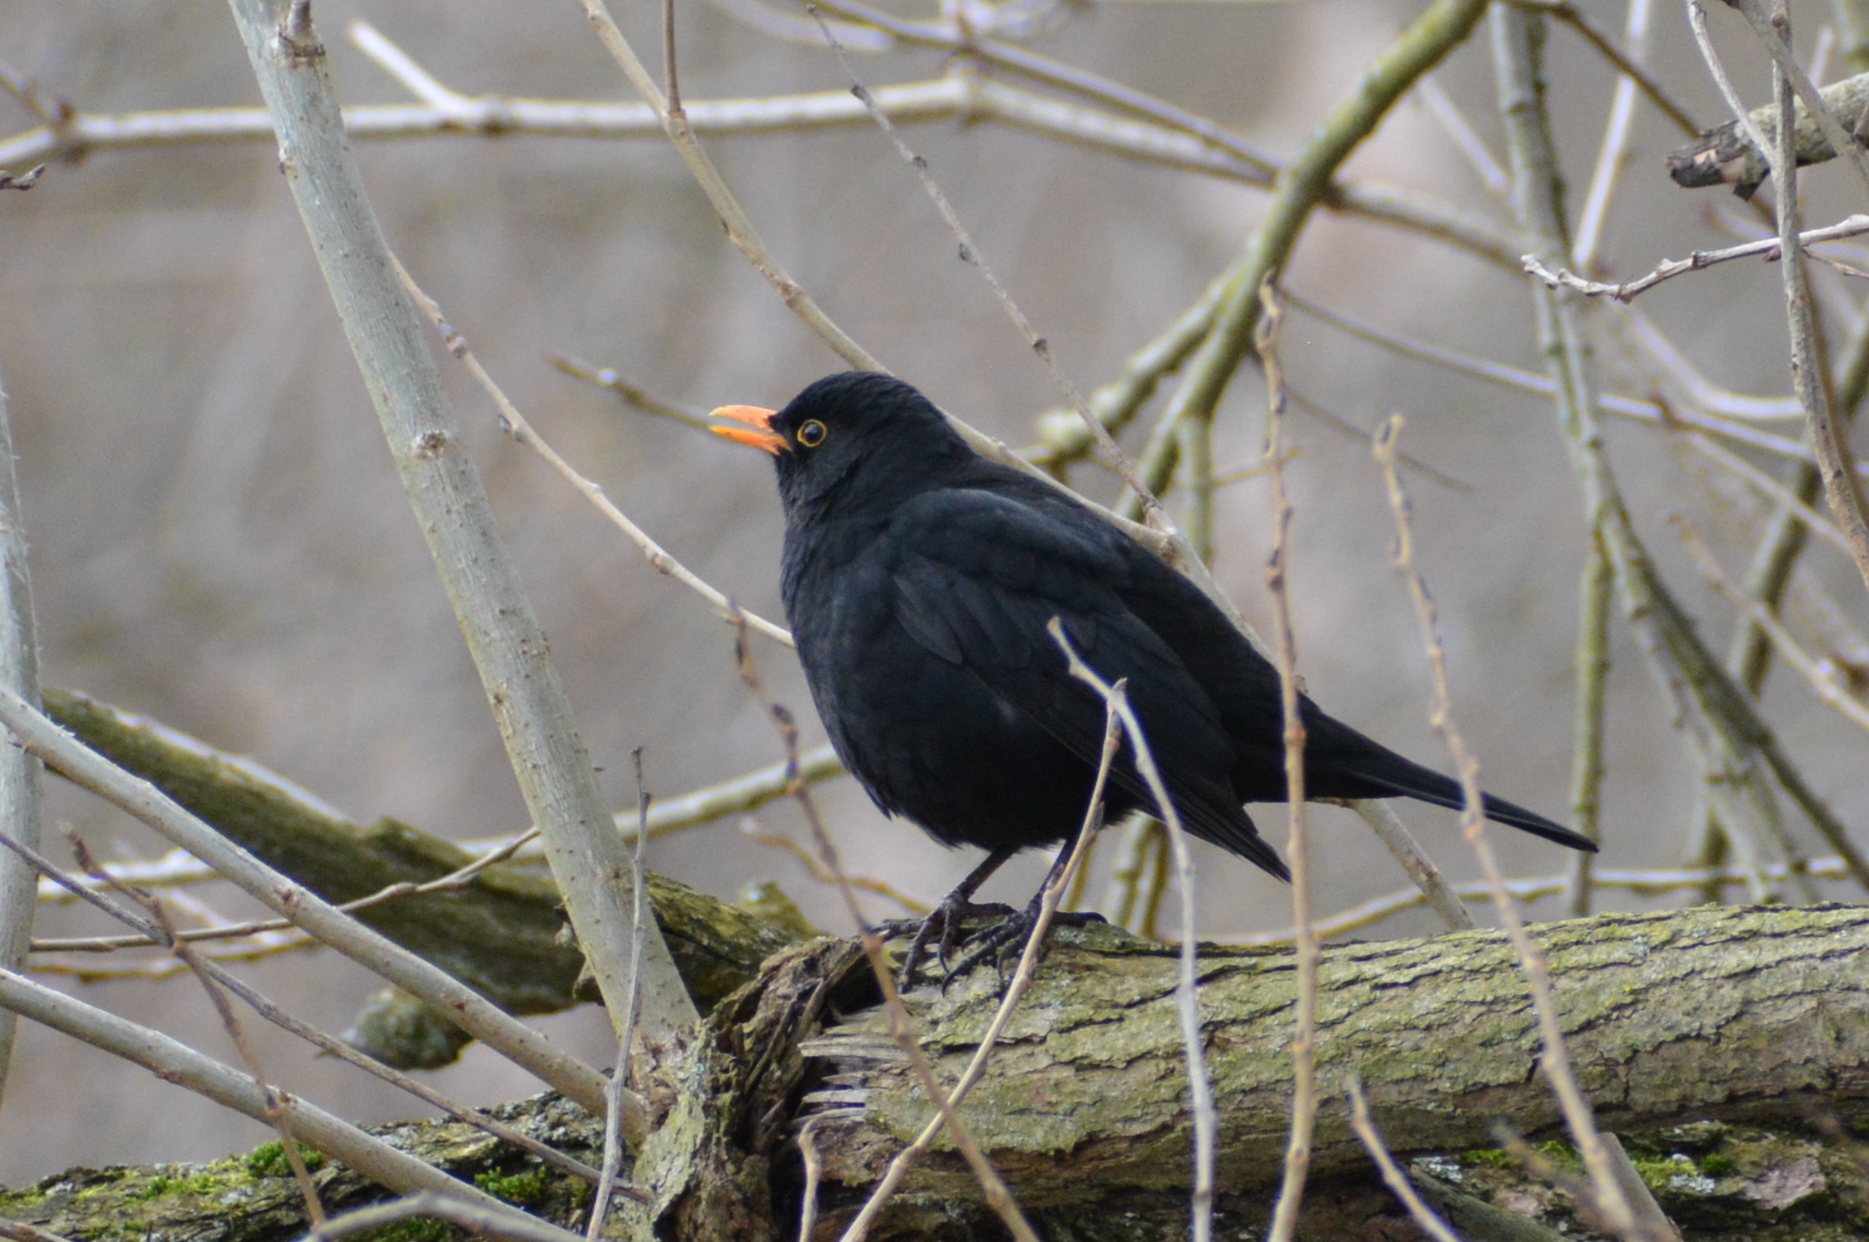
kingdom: Animalia
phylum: Chordata
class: Aves
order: Passeriformes
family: Turdidae
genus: Turdus
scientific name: Turdus merula
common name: Common blackbird
